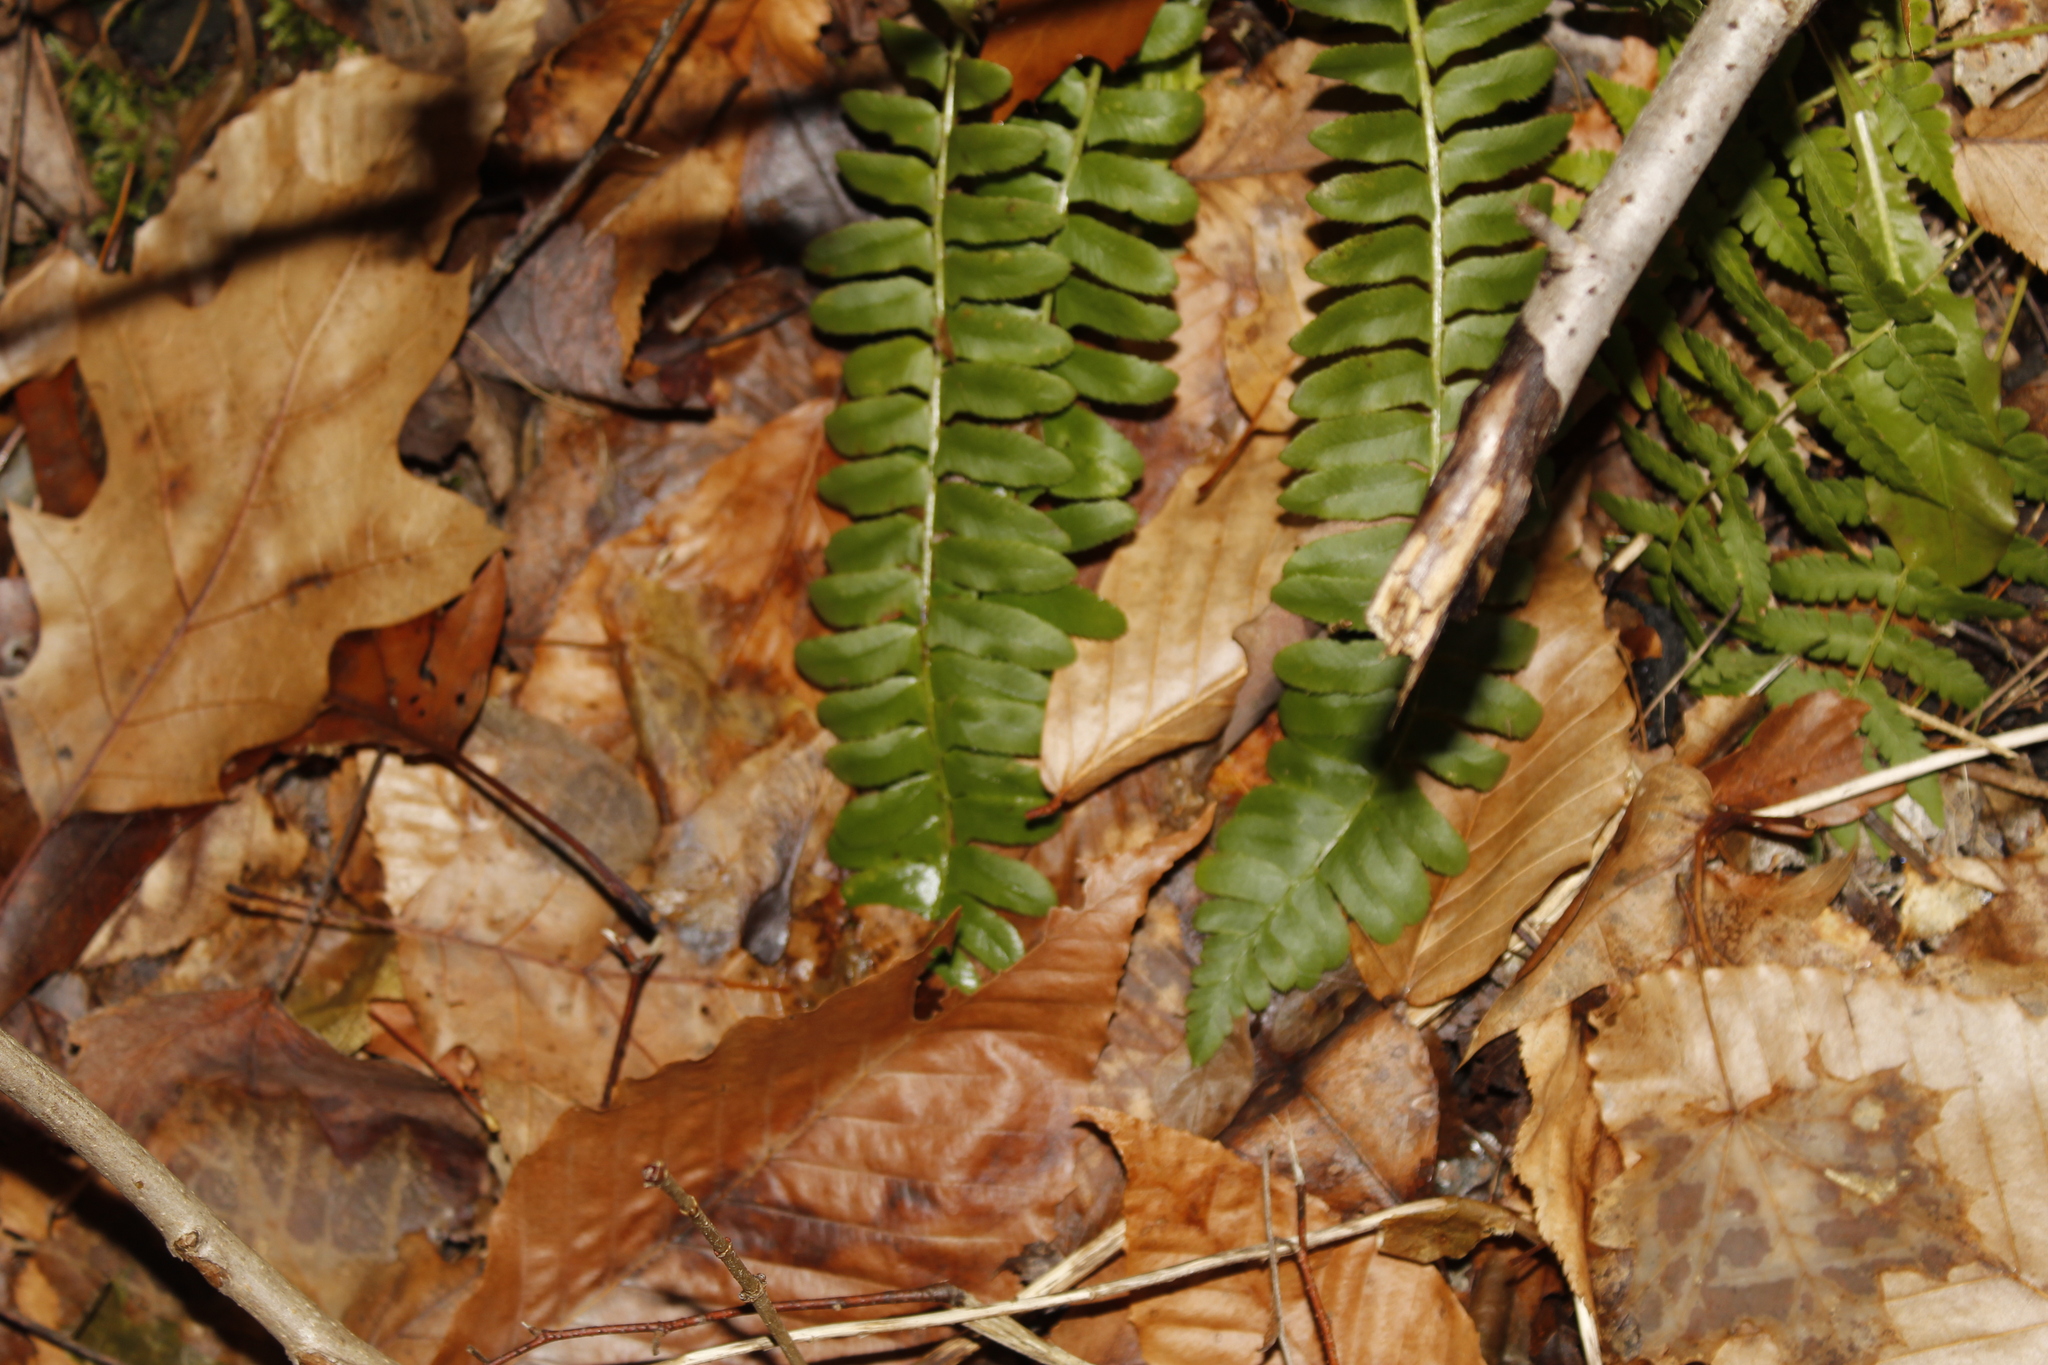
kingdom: Plantae
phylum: Tracheophyta
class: Polypodiopsida
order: Polypodiales
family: Dryopteridaceae
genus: Polystichum
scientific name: Polystichum acrostichoides
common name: Christmas fern
